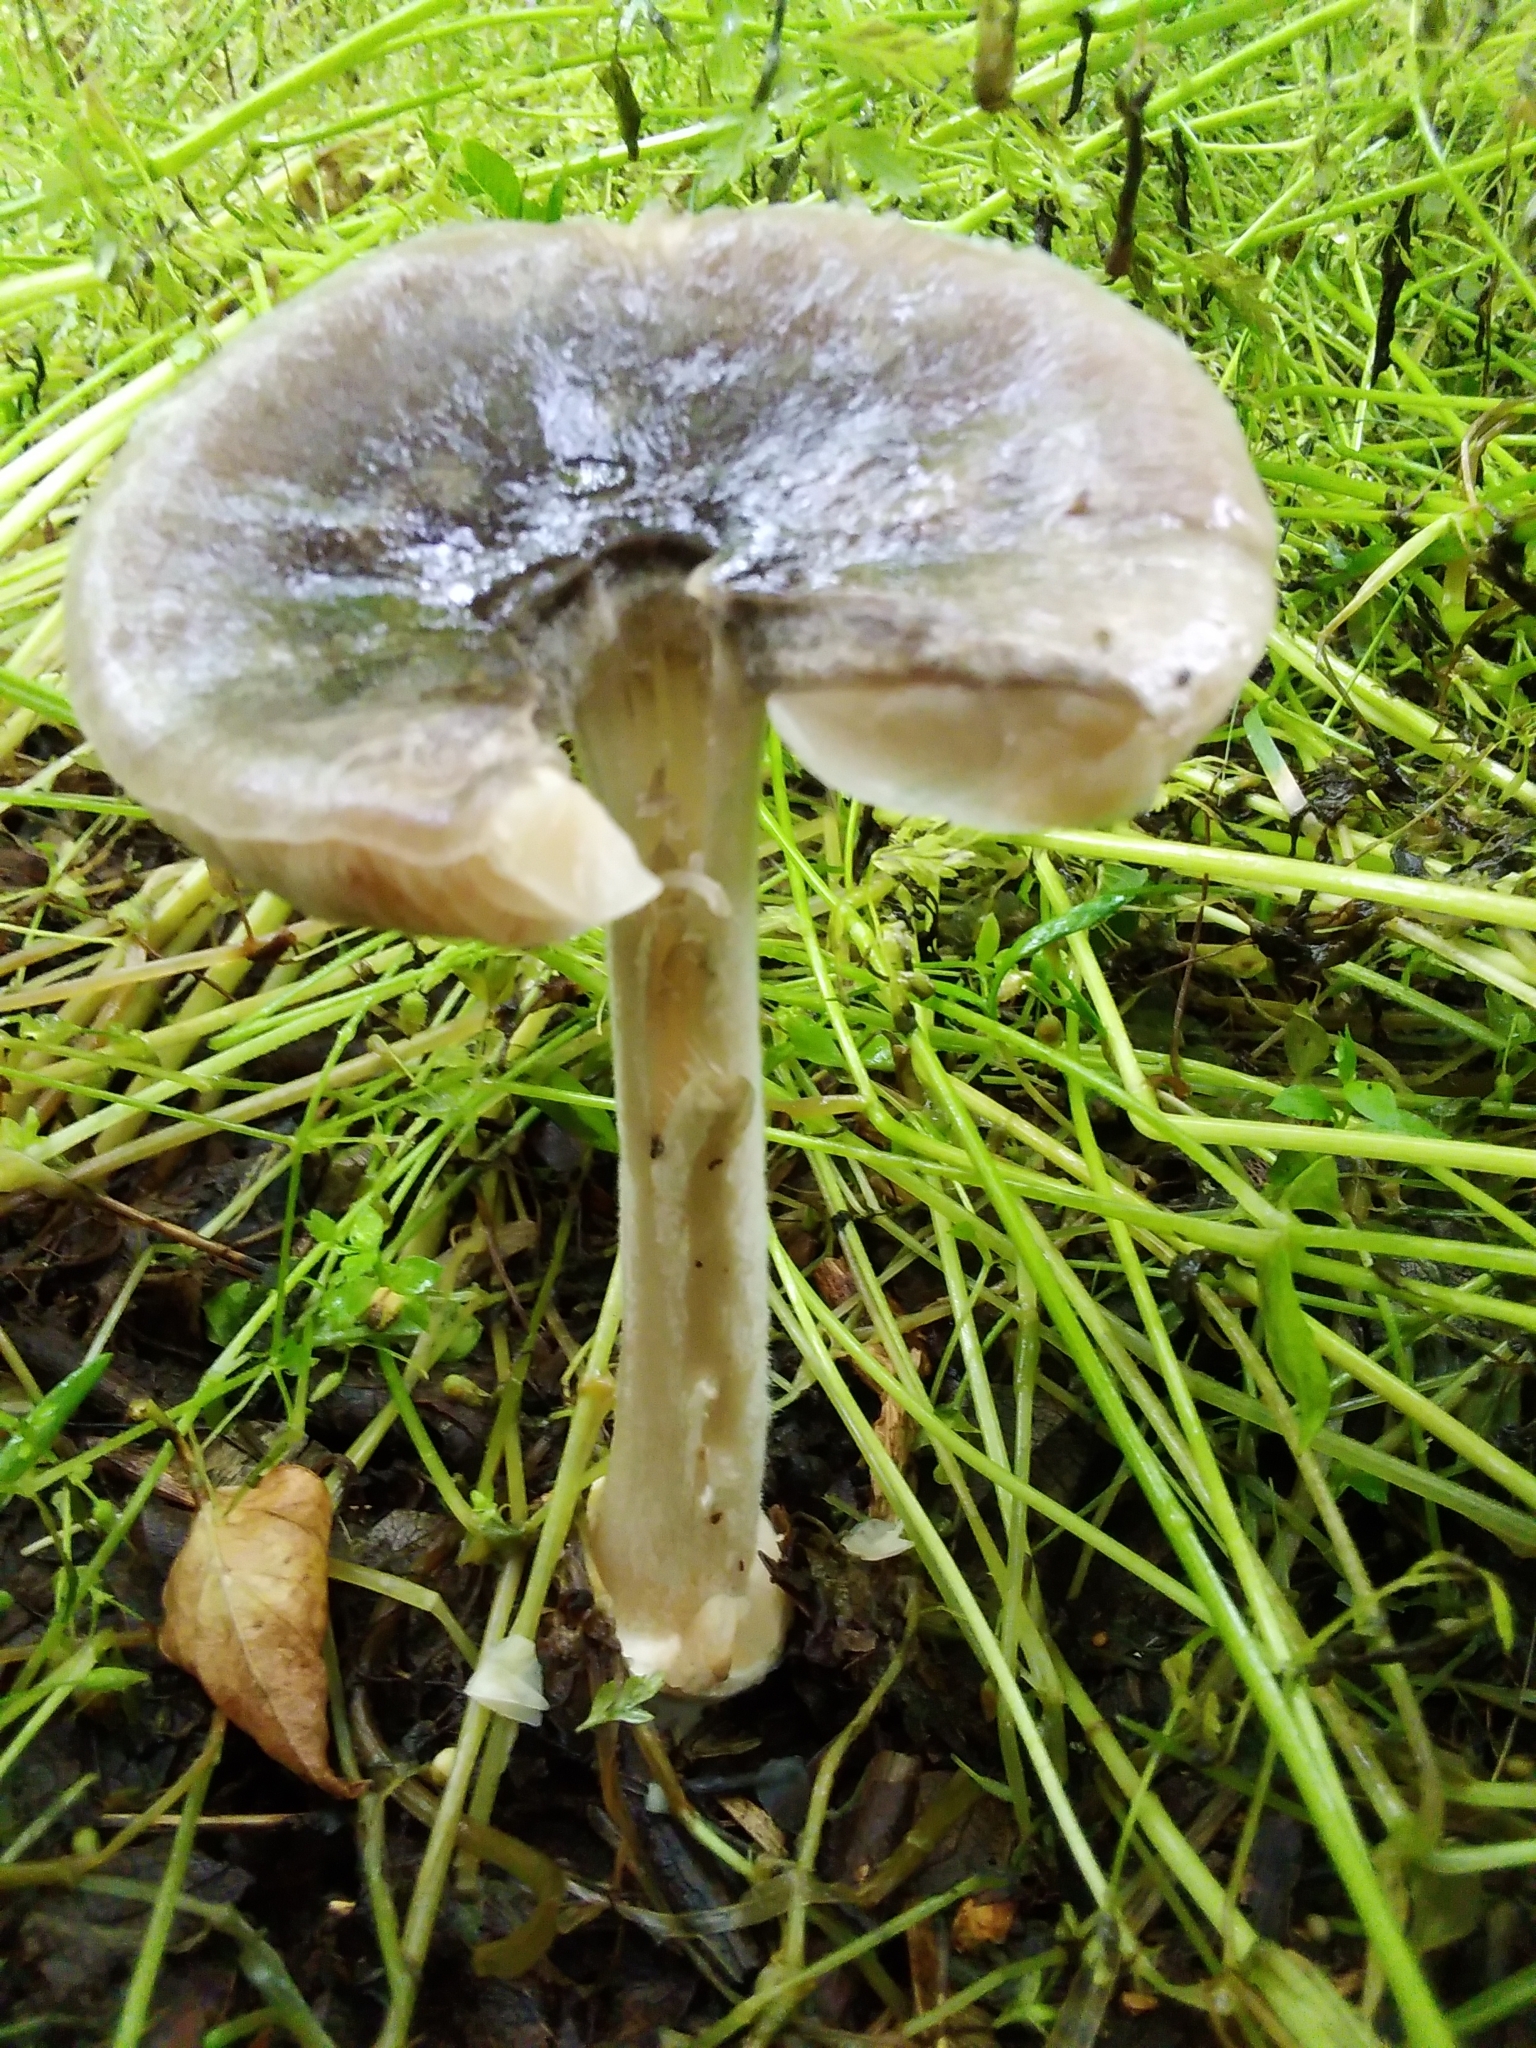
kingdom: Fungi
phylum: Basidiomycota
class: Agaricomycetes
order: Agaricales
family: Pluteaceae
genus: Volvopluteus
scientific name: Volvopluteus gloiocephalus
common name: Stubble rosegill
